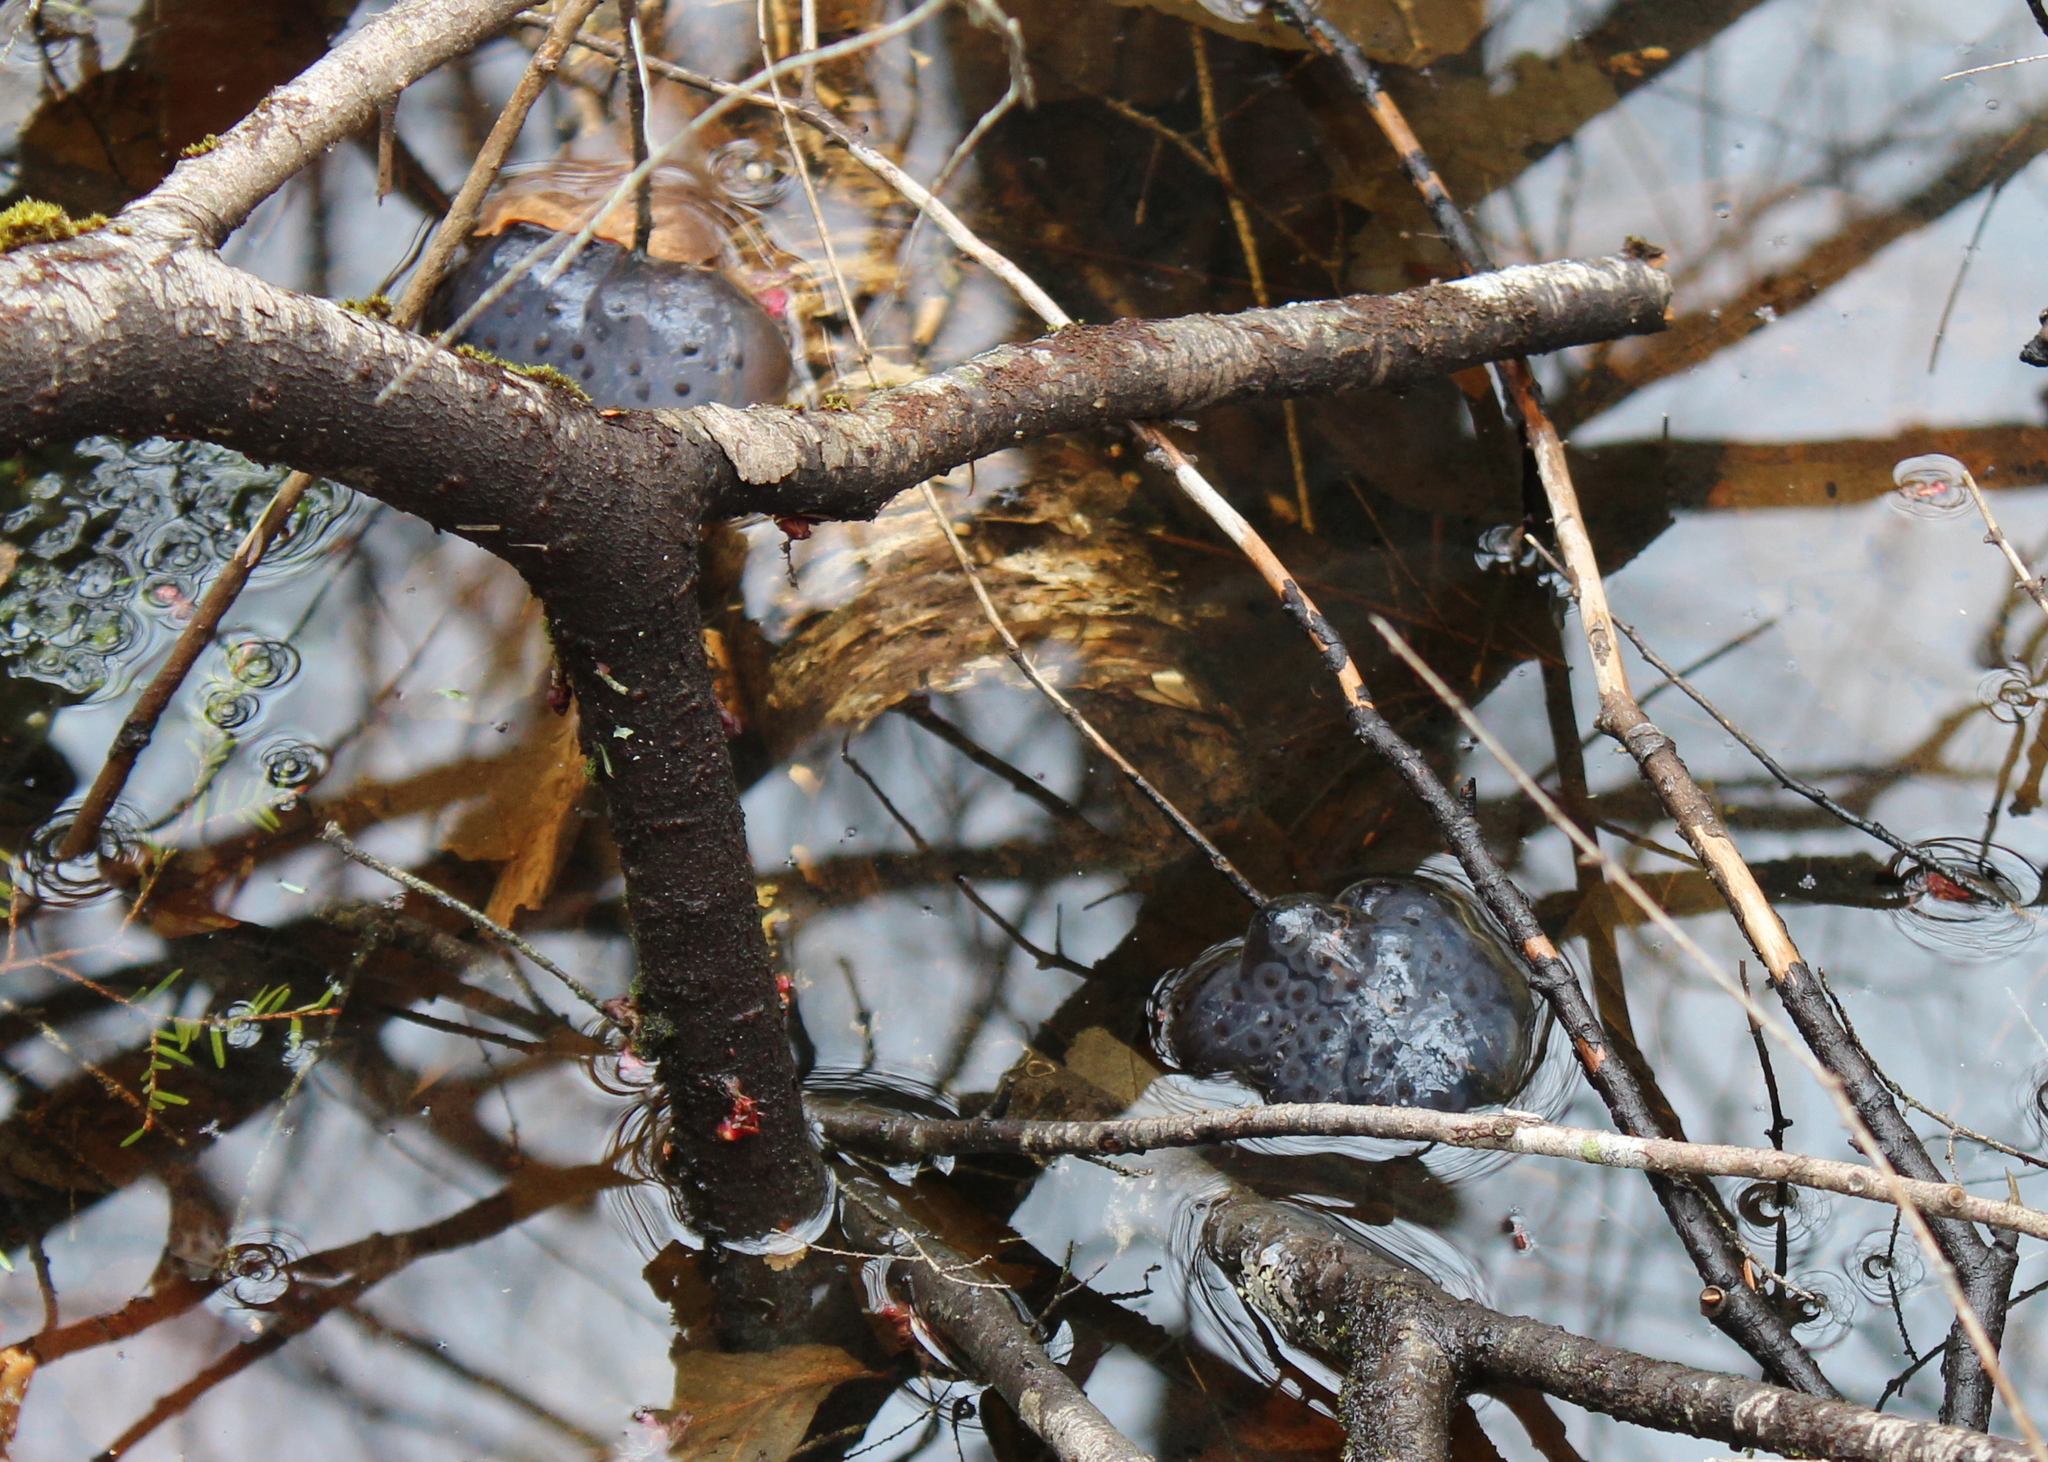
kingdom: Animalia
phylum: Chordata
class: Amphibia
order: Caudata
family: Ambystomatidae
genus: Ambystoma
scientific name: Ambystoma maculatum
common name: Spotted salamander
